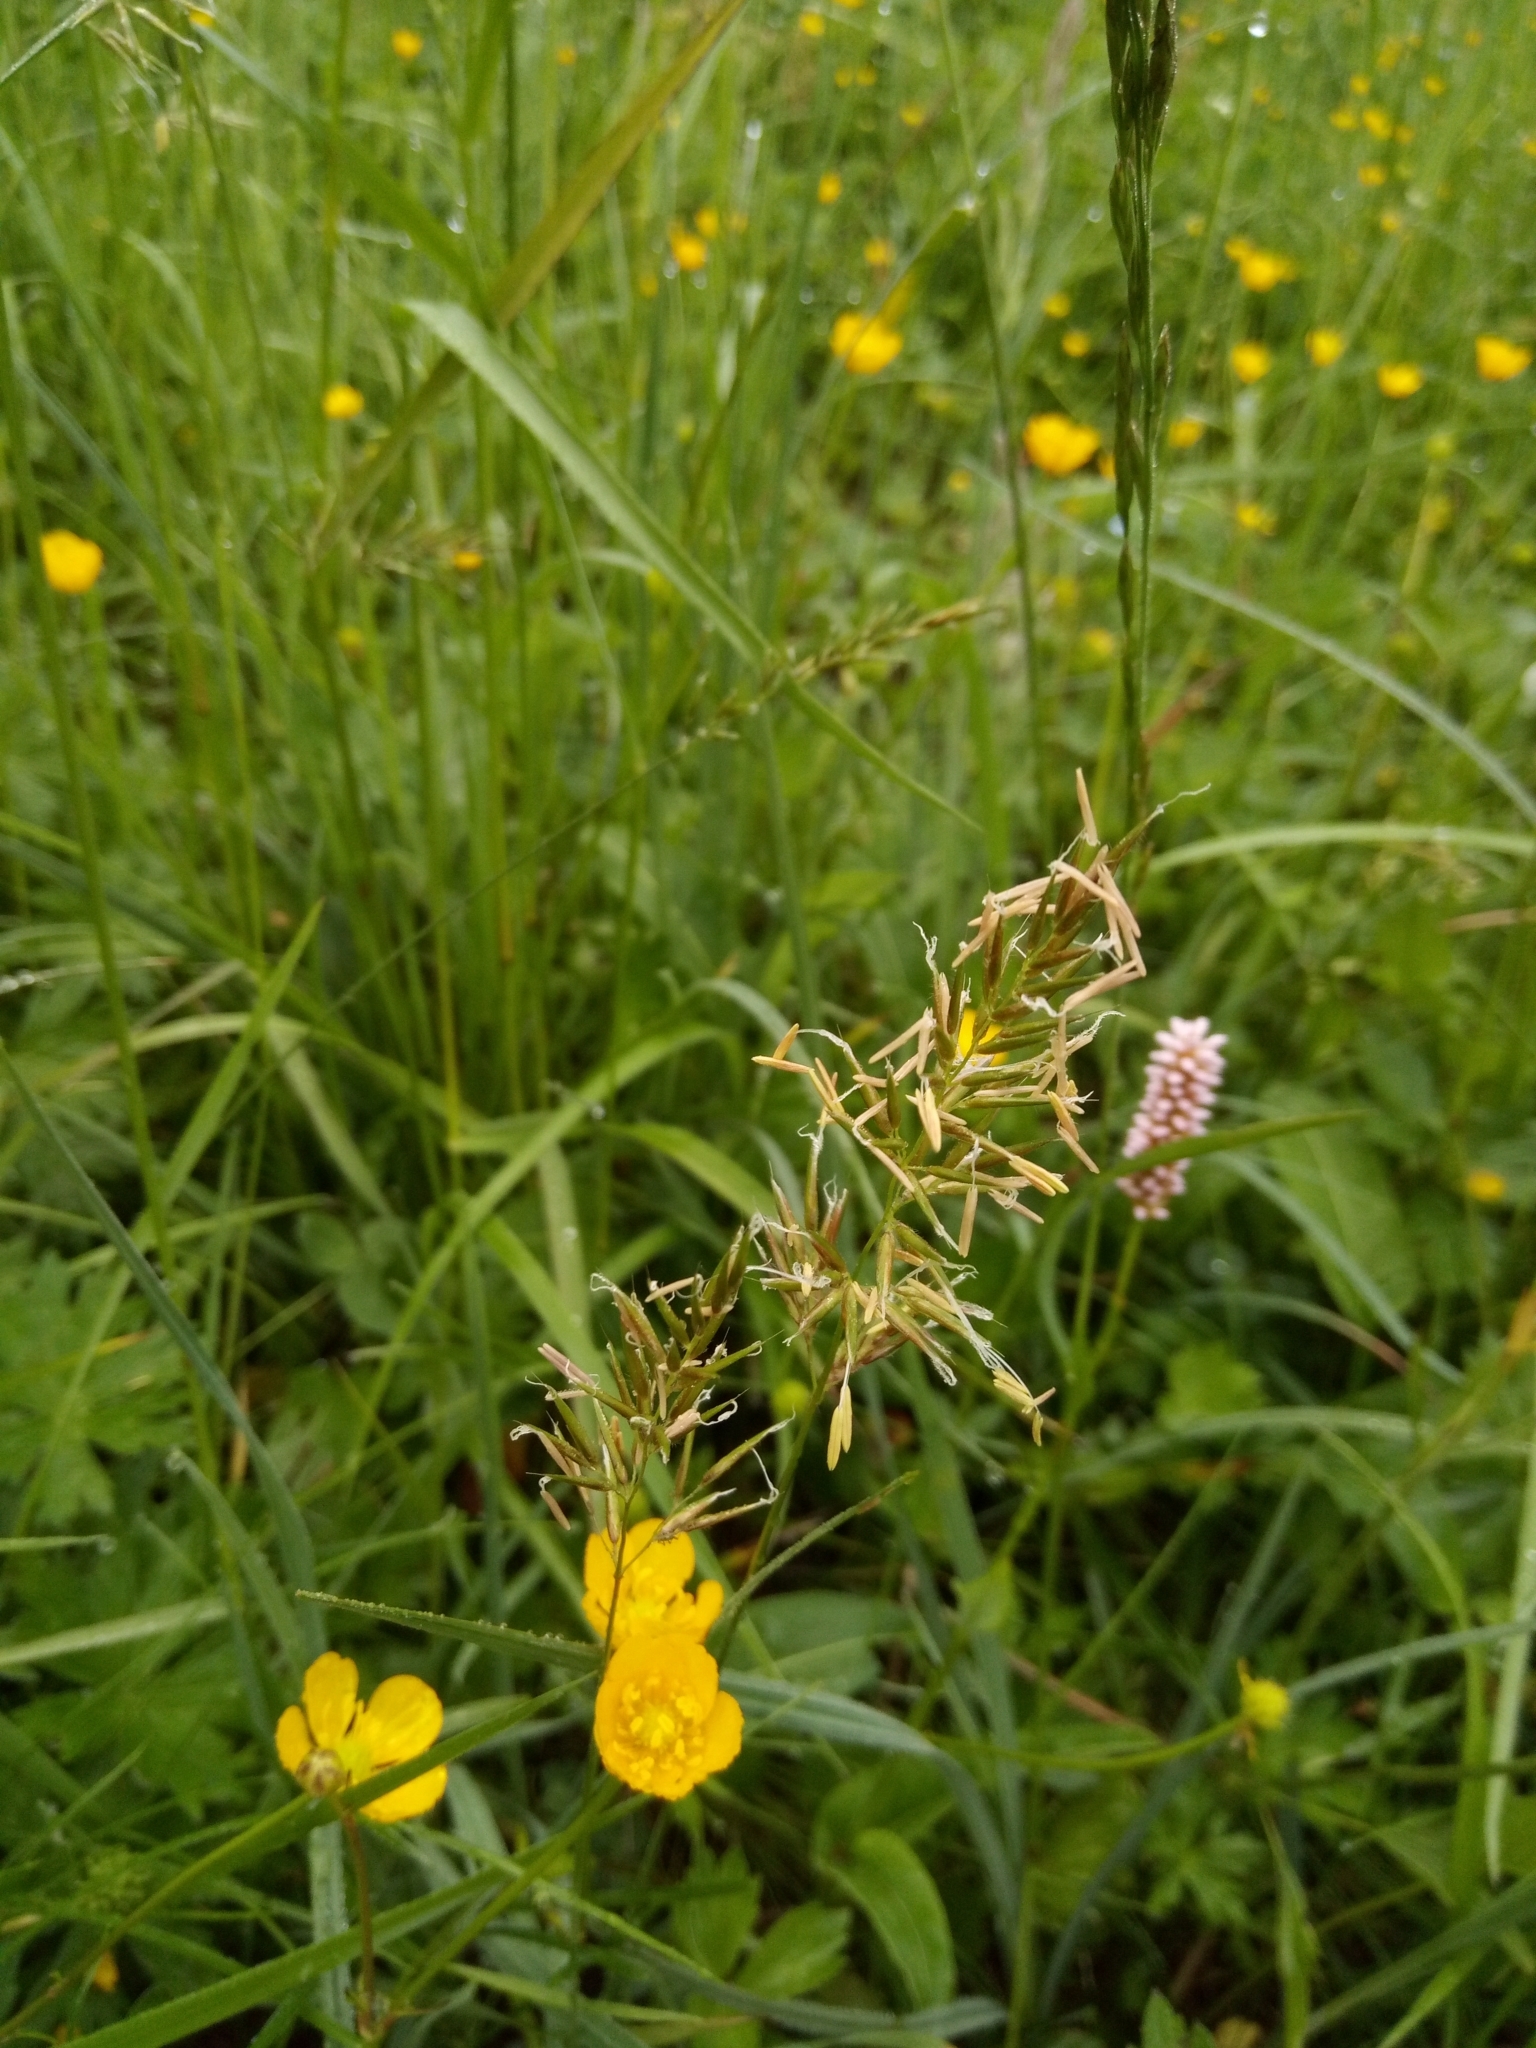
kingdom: Plantae
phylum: Tracheophyta
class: Liliopsida
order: Poales
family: Poaceae
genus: Anthoxanthum
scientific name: Anthoxanthum odoratum
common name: Sweet vernalgrass
